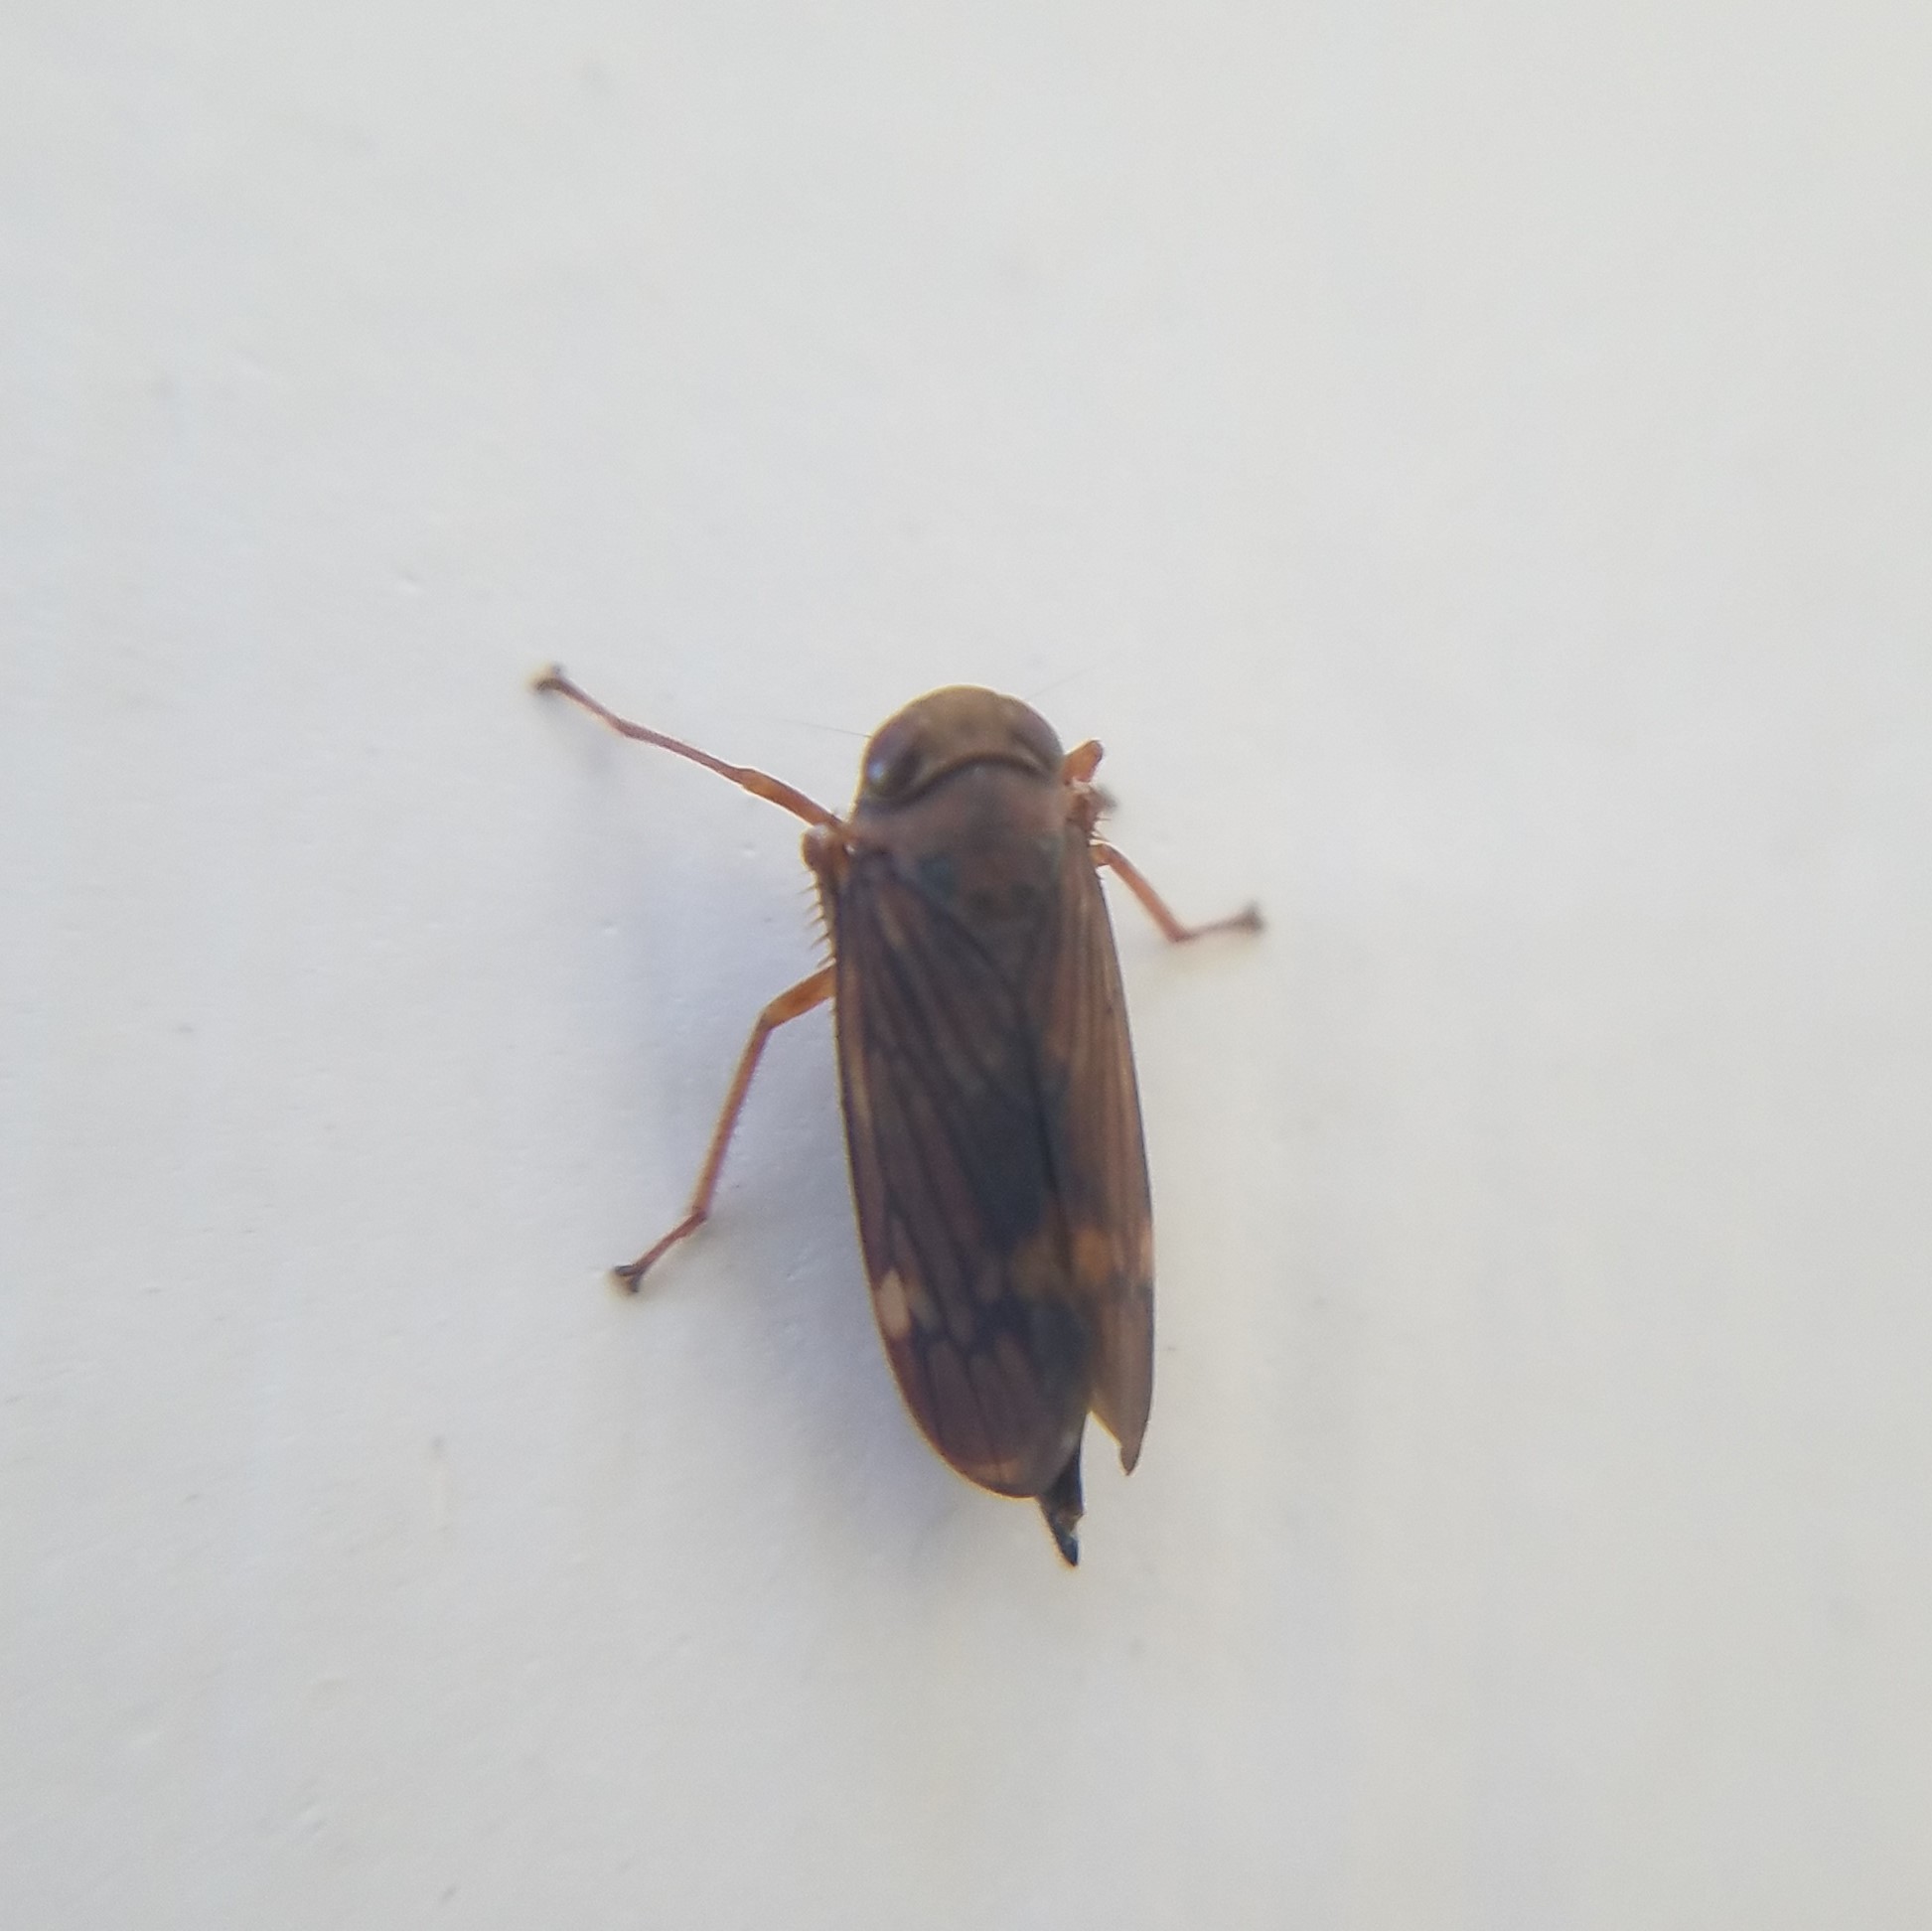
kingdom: Animalia
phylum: Arthropoda
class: Insecta
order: Hemiptera
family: Cicadellidae
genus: Jikradia
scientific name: Jikradia olitoria
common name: Coppery leafhopper
